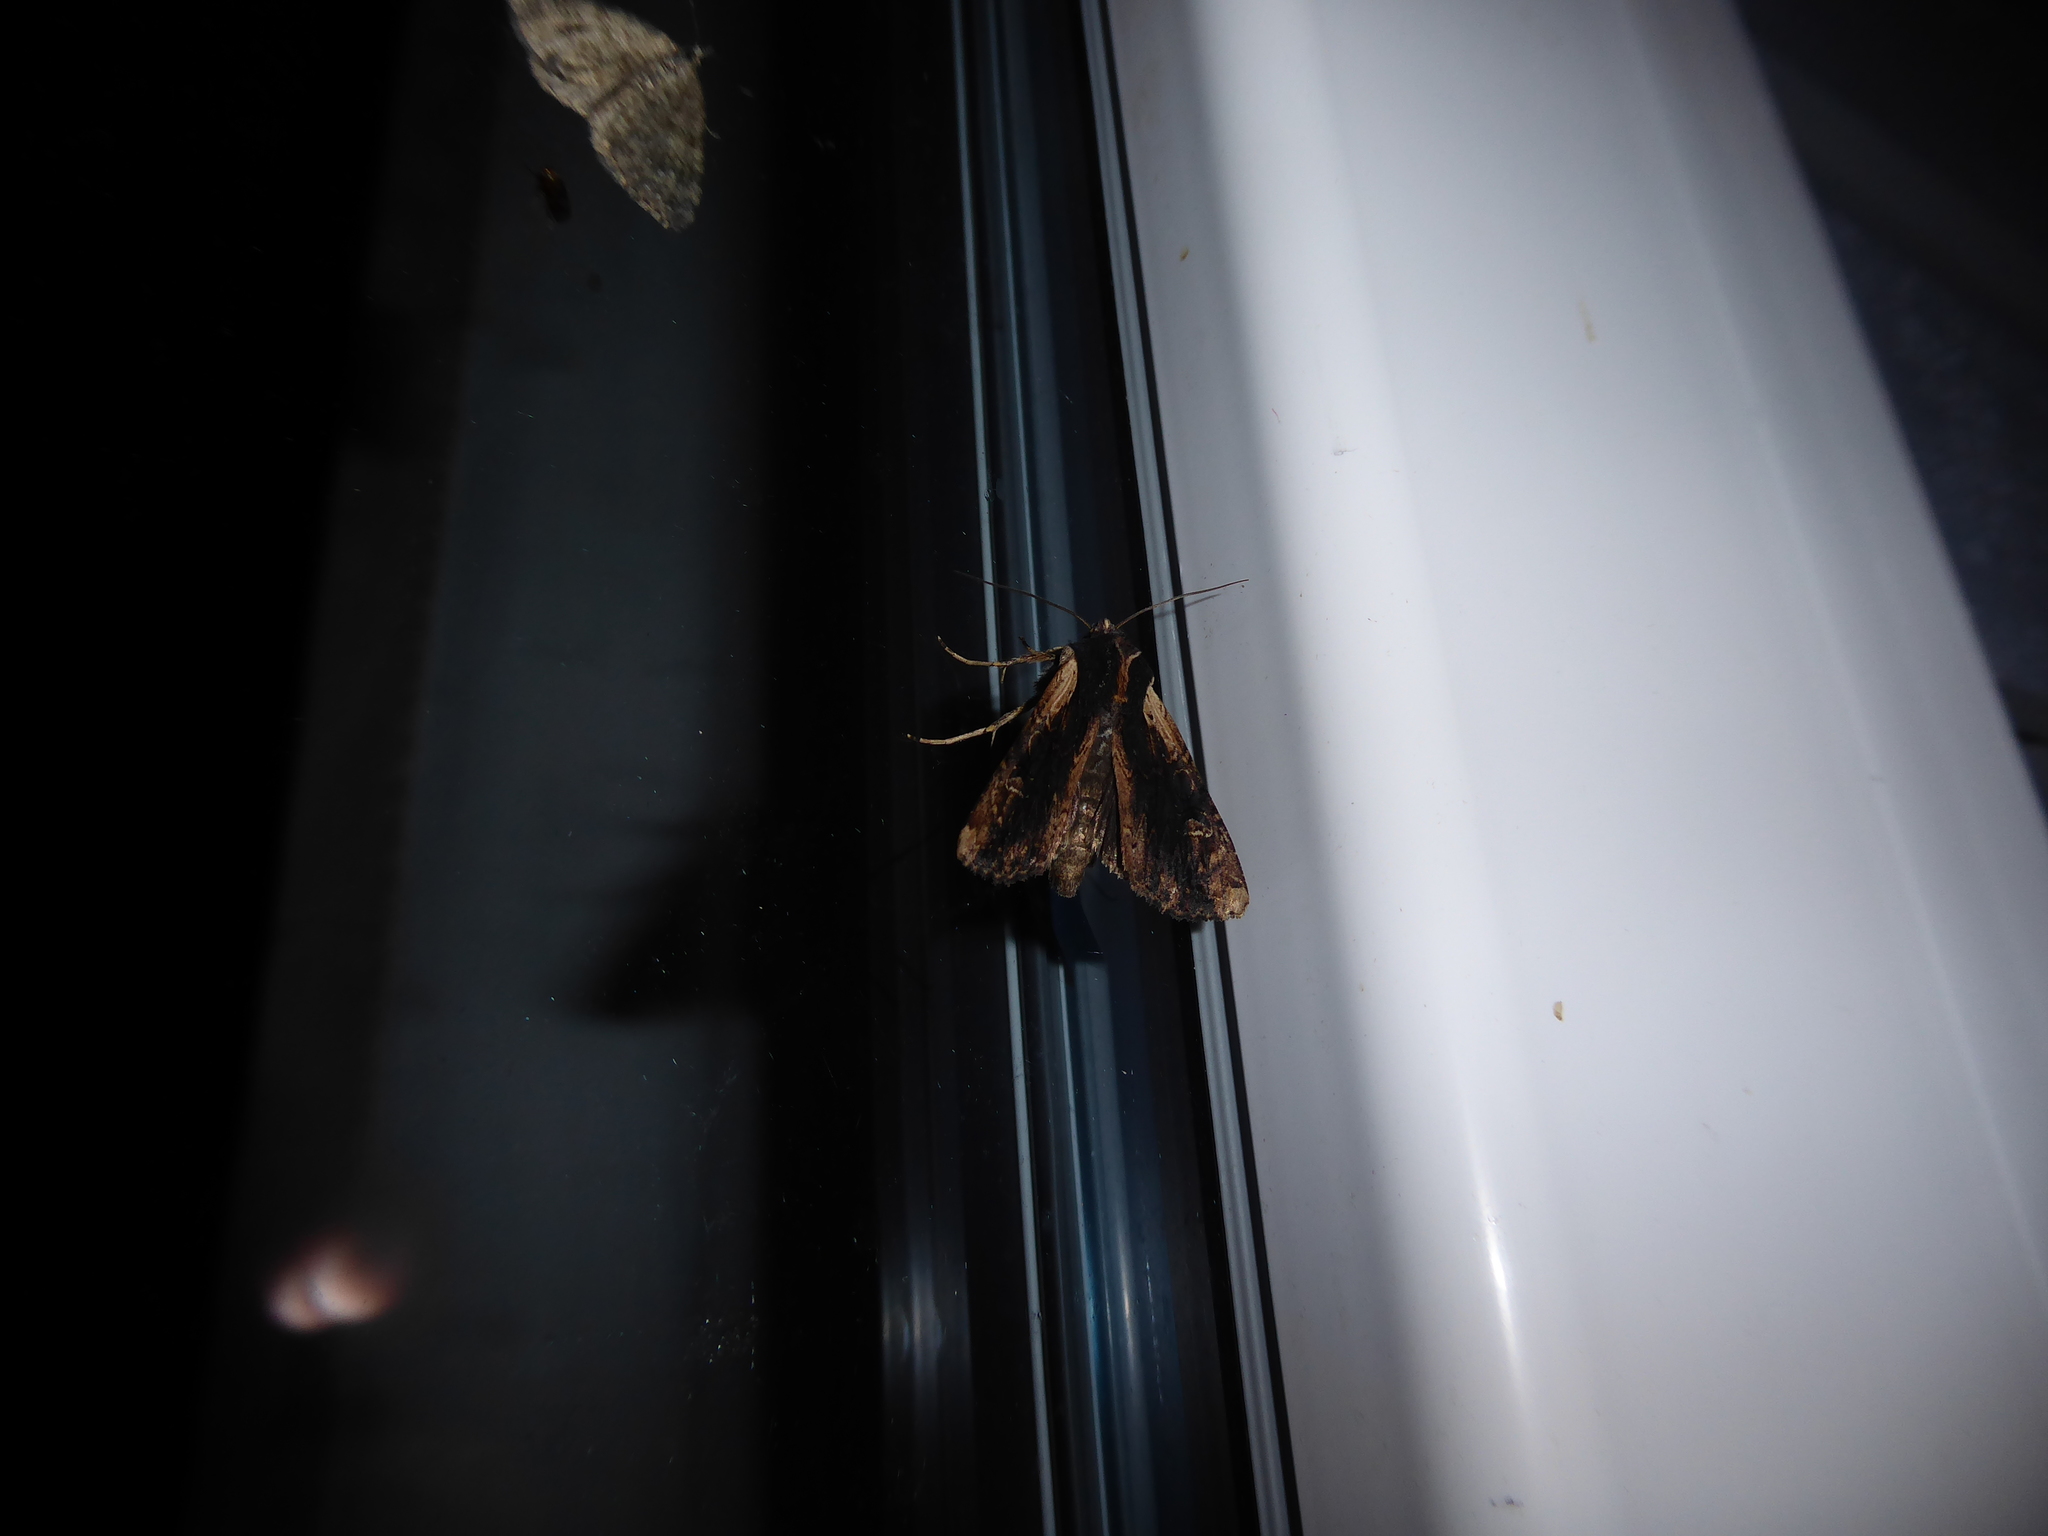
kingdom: Animalia
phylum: Arthropoda
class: Insecta
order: Lepidoptera
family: Noctuidae
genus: Ichneutica
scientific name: Ichneutica omoplaca
